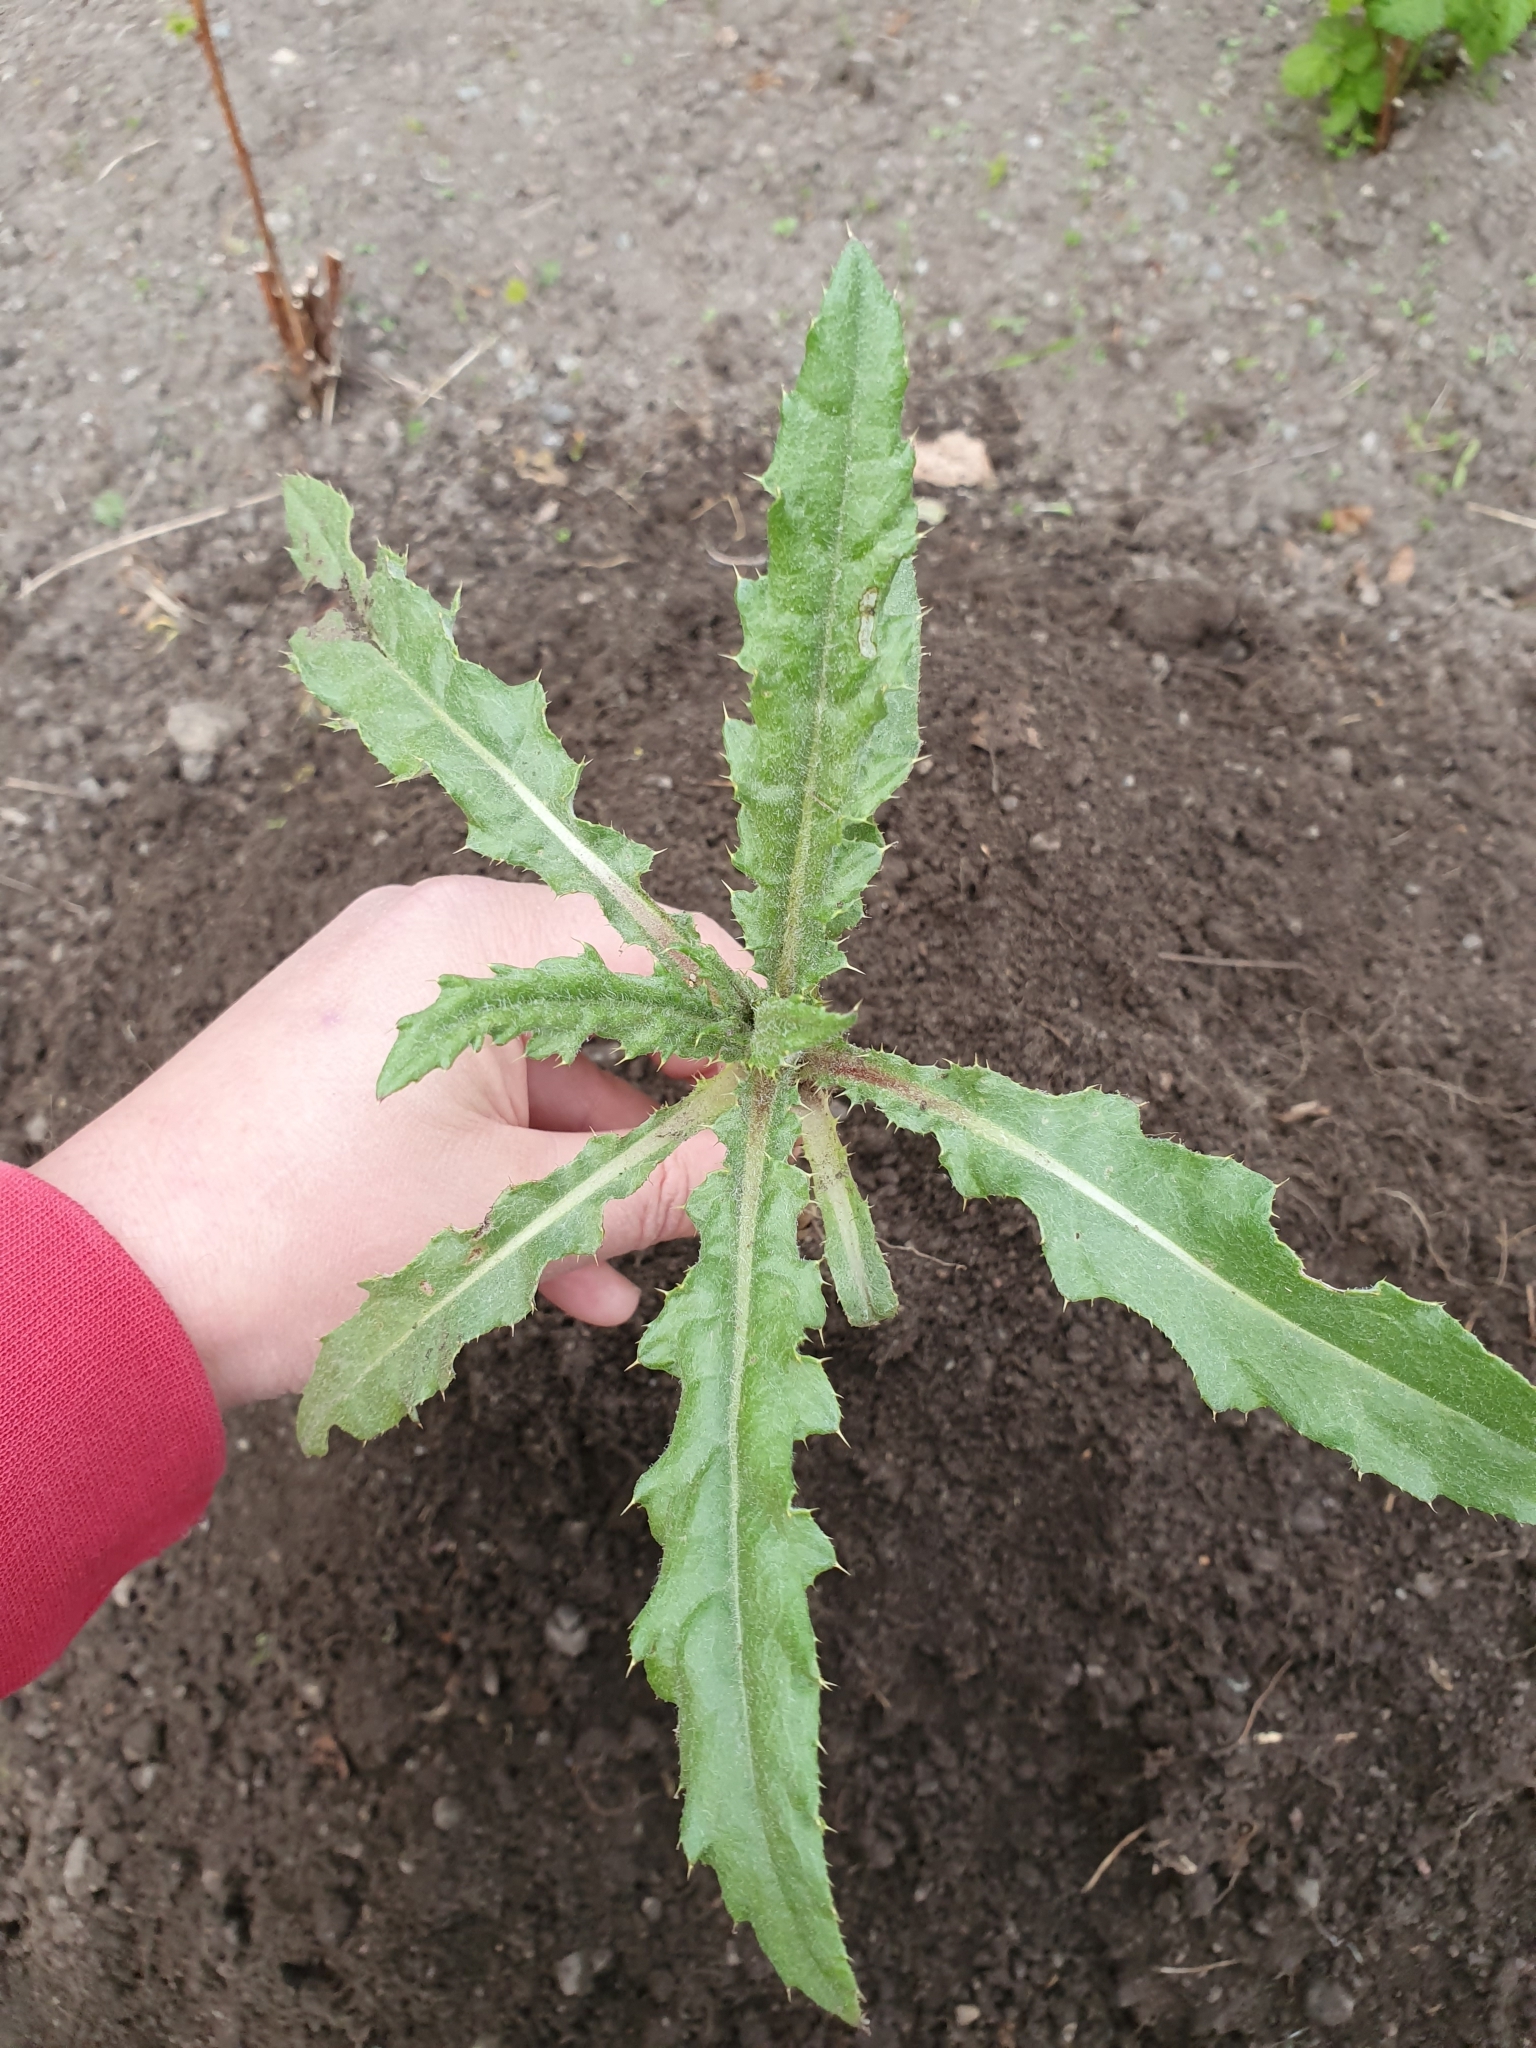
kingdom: Plantae
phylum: Tracheophyta
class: Magnoliopsida
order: Asterales
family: Asteraceae
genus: Cirsium
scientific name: Cirsium arvense
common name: Creeping thistle
